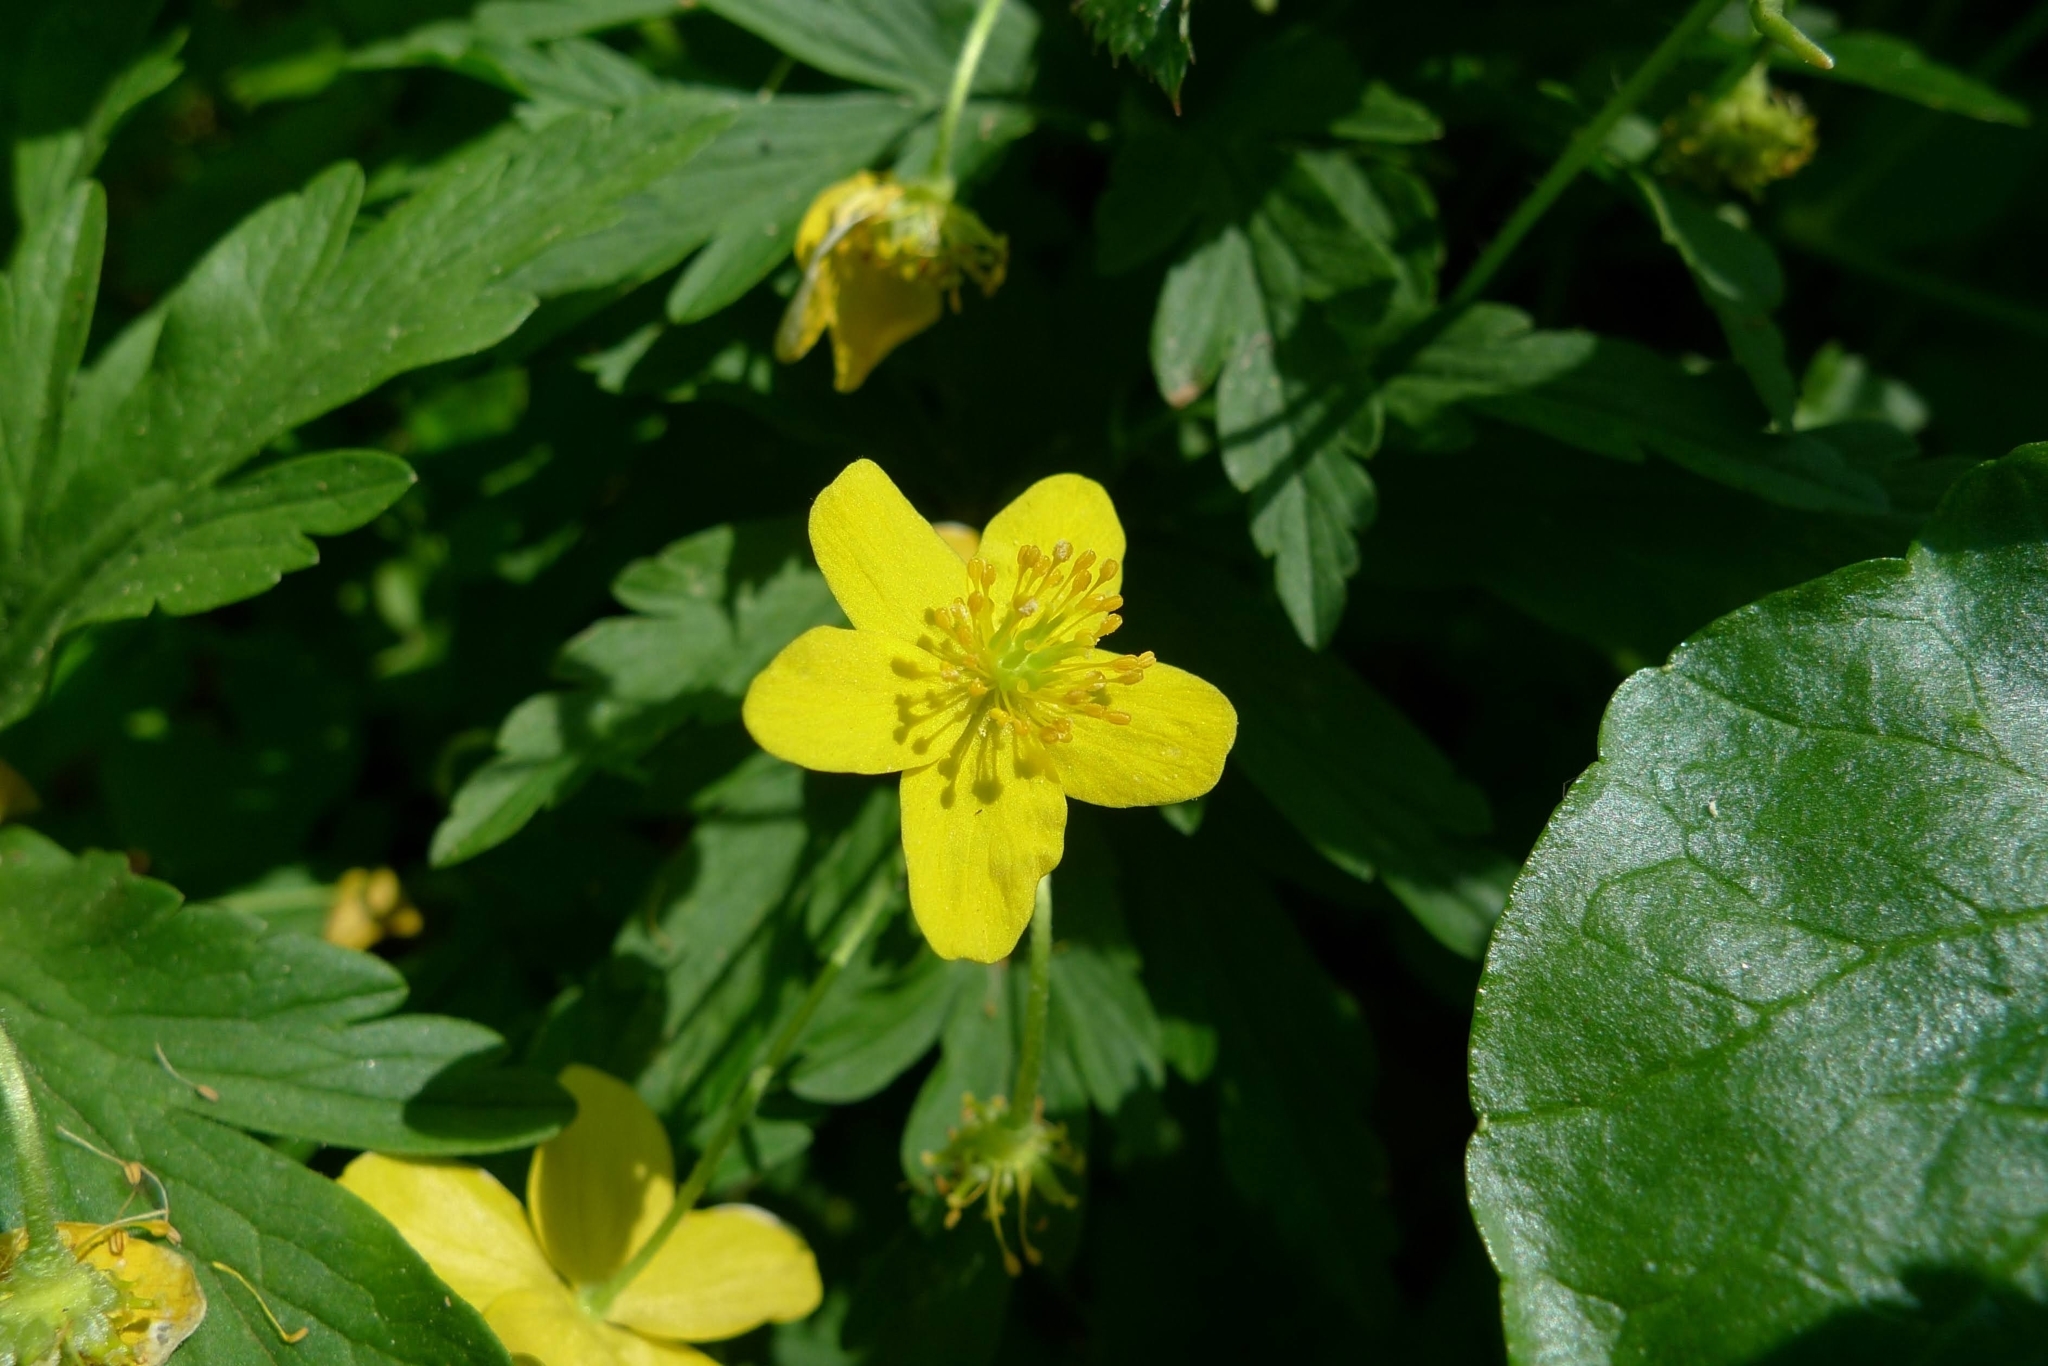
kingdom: Plantae
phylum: Tracheophyta
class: Magnoliopsida
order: Ranunculales
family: Ranunculaceae
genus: Anemone
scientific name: Anemone ranunculoides
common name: Yellow anemone
